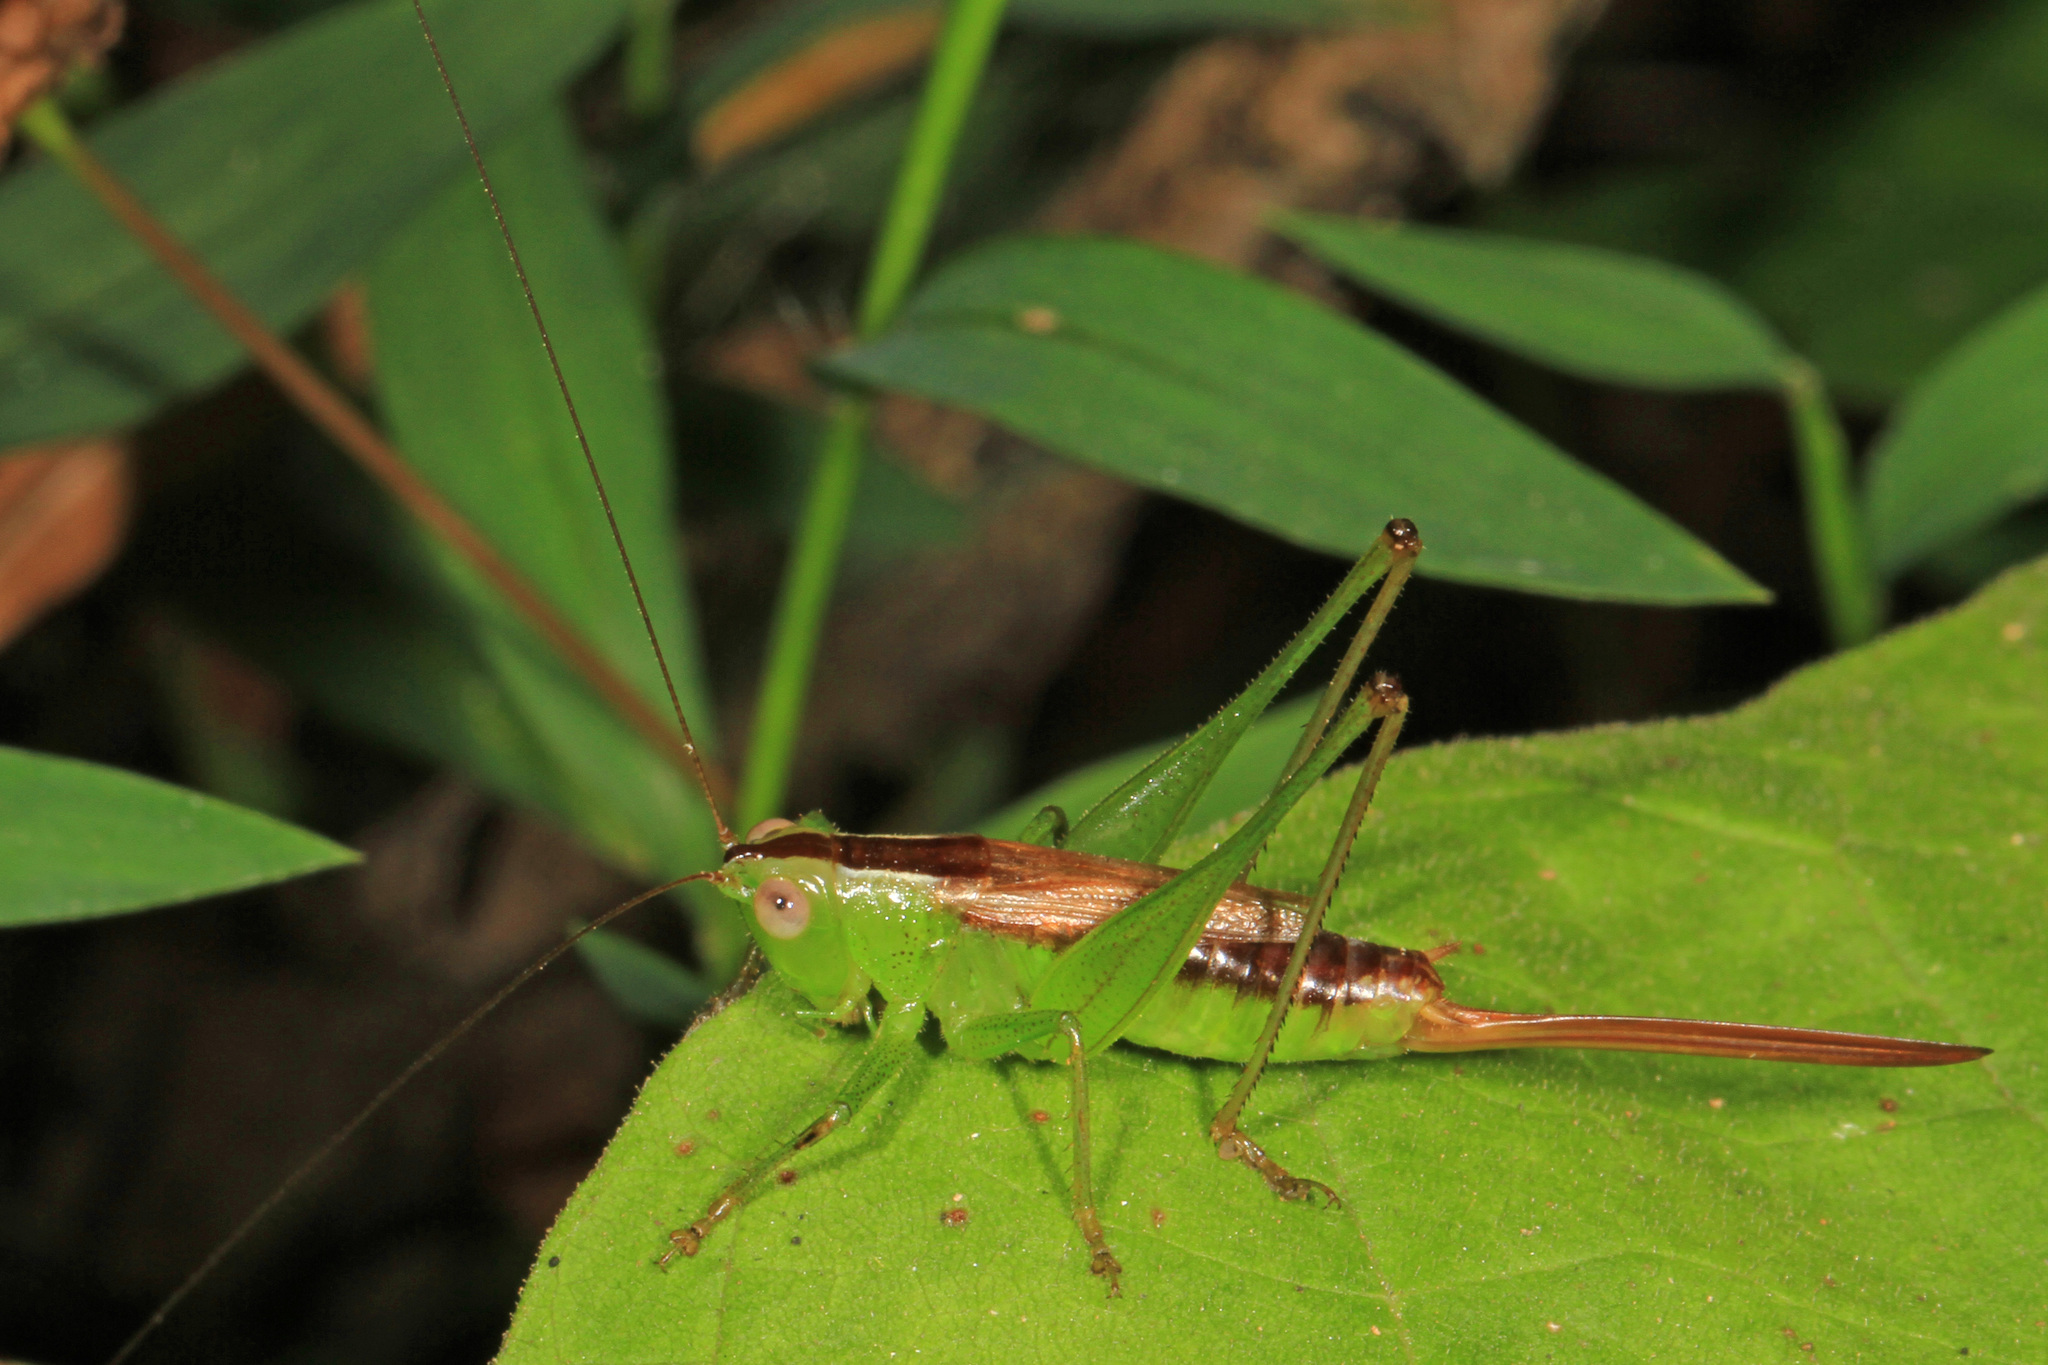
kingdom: Animalia
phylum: Arthropoda
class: Insecta
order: Orthoptera
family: Tettigoniidae
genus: Conocephalus
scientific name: Conocephalus brevipennis
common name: Short-winged meadow katydid
